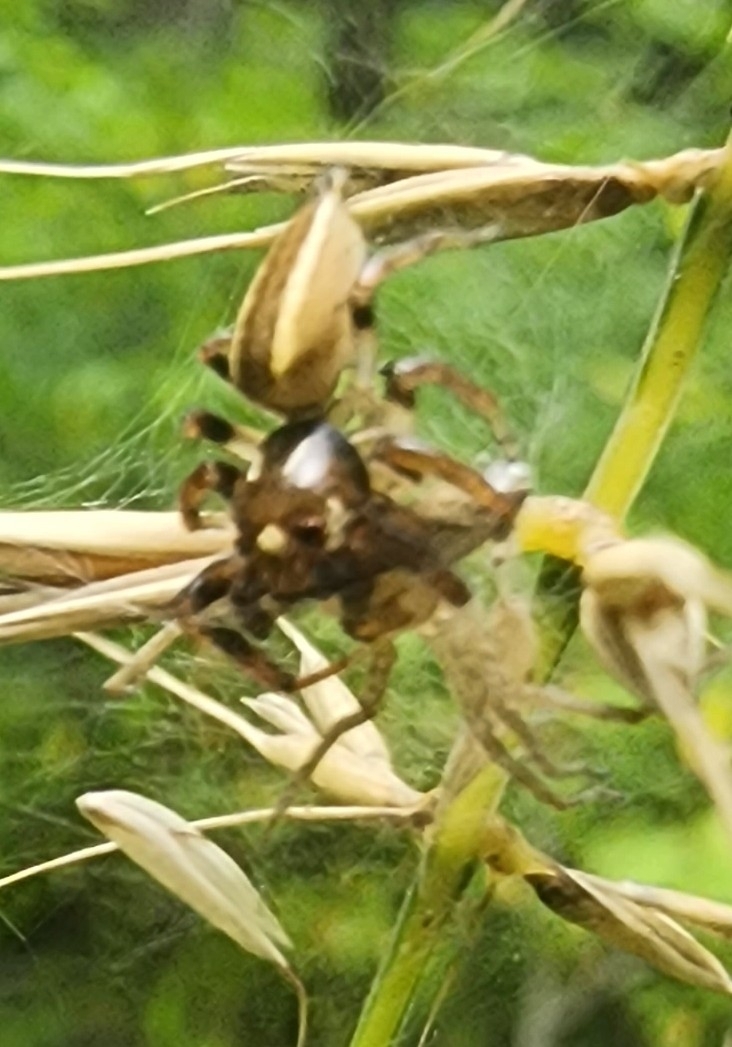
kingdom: Animalia
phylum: Arthropoda
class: Arachnida
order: Araneae
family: Salticidae
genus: Colonus
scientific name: Colonus sylvanus
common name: Jumping spiders
